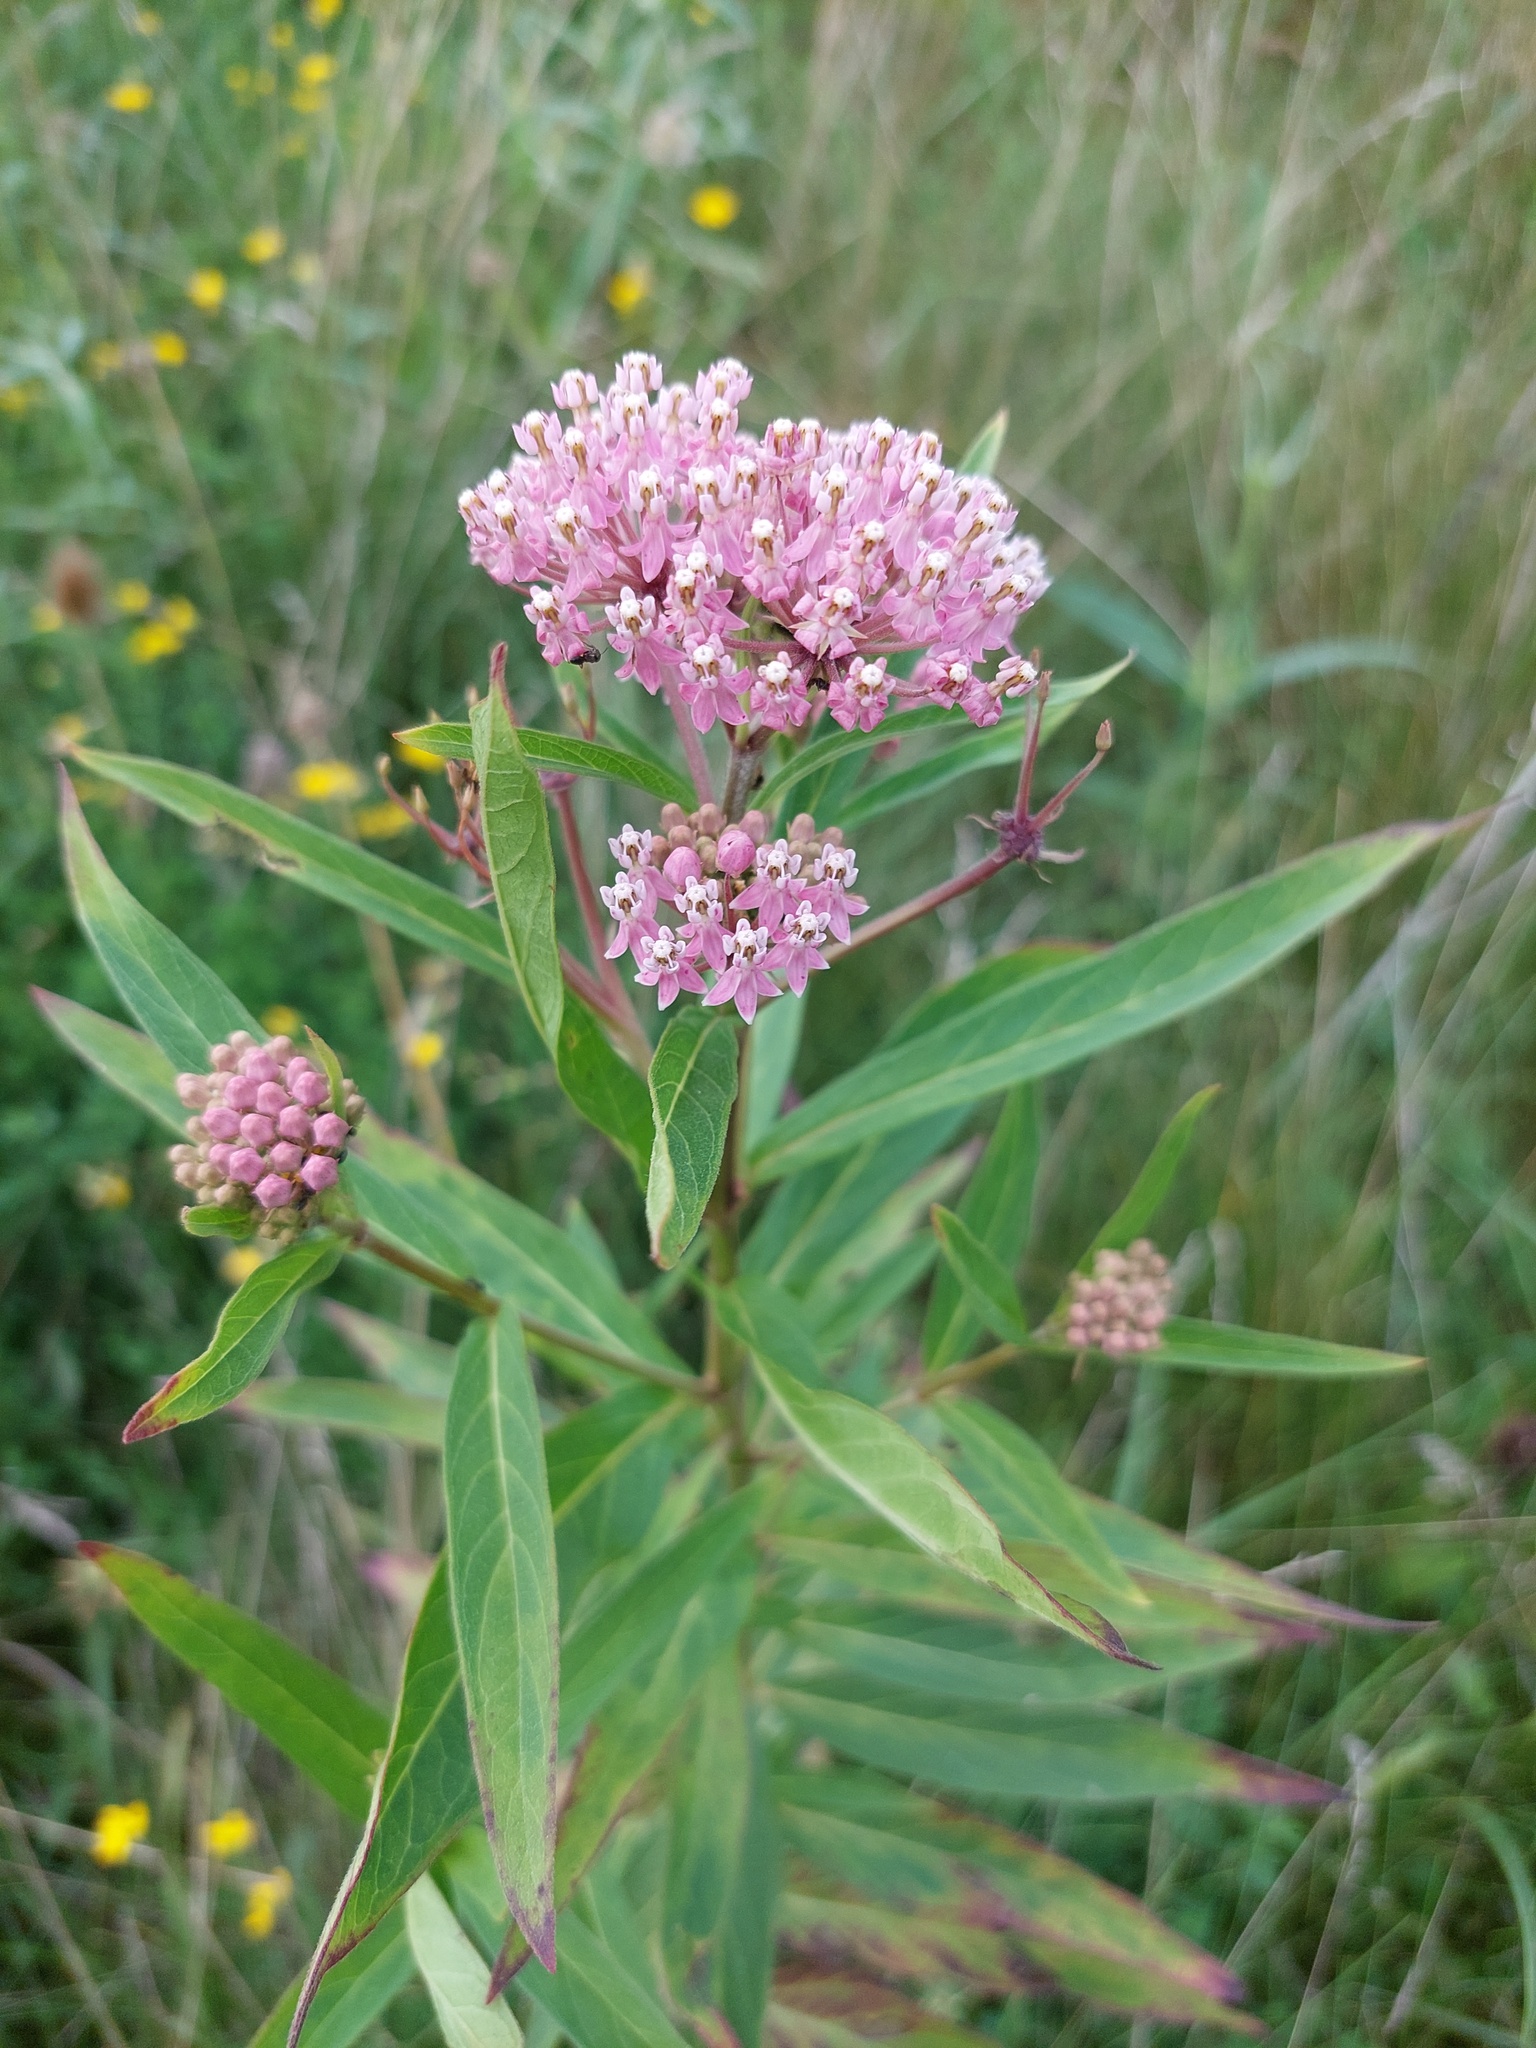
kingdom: Plantae
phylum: Tracheophyta
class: Magnoliopsida
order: Gentianales
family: Apocynaceae
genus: Asclepias
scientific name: Asclepias incarnata
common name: Swamp milkweed
